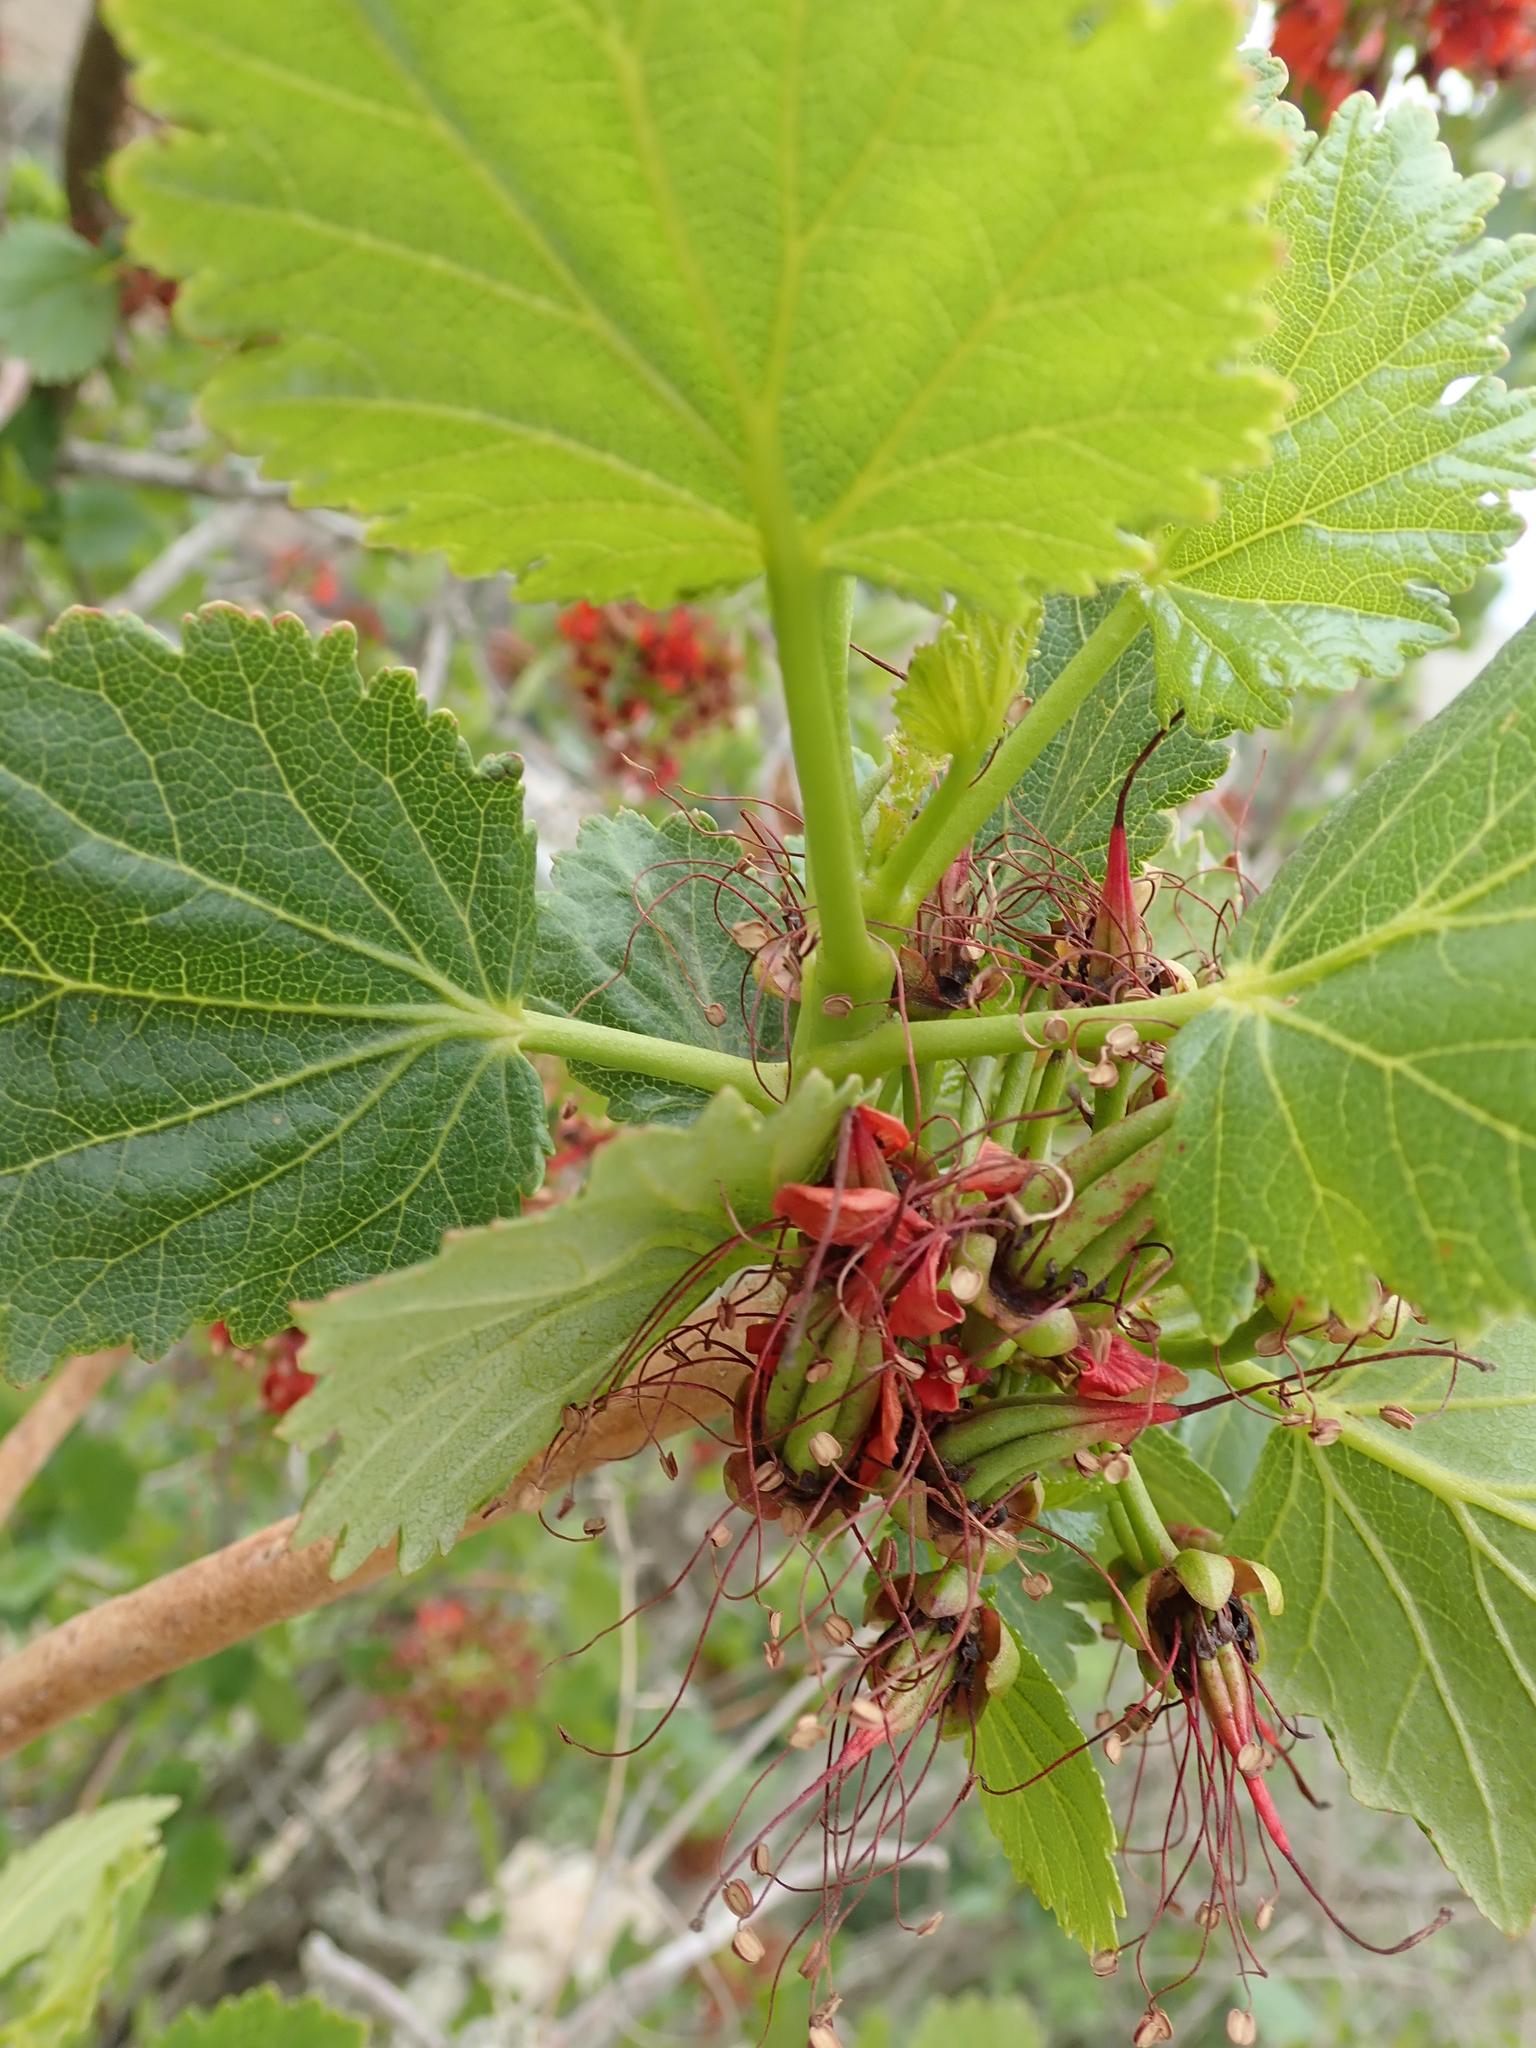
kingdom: Plantae
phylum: Tracheophyta
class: Magnoliopsida
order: Geraniales
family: Francoaceae
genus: Greyia
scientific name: Greyia sutherlandii
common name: Glossy bottlebrush
